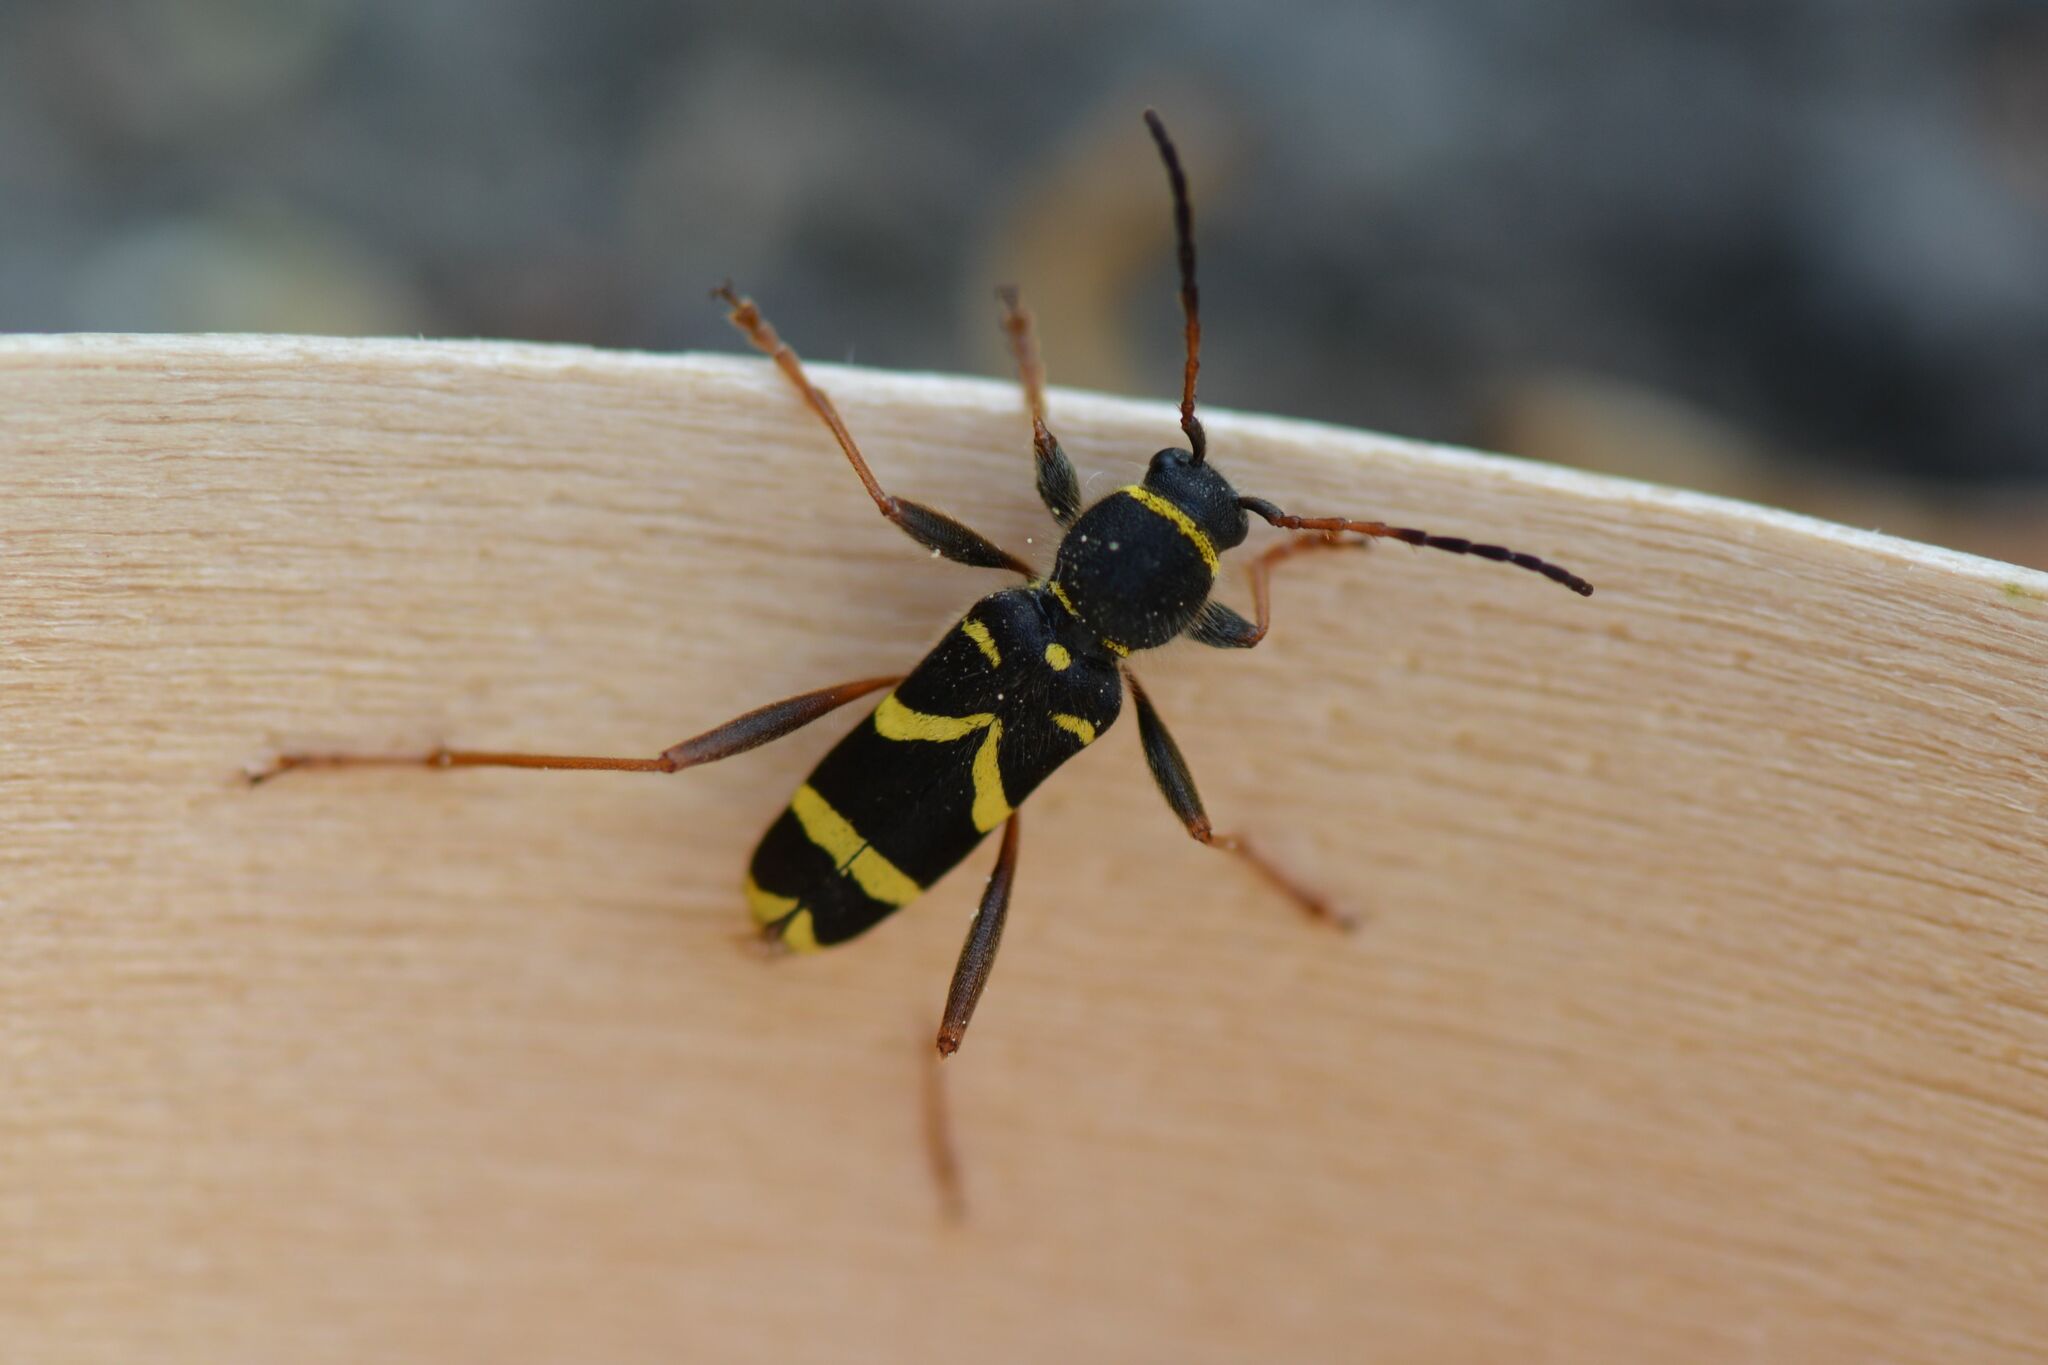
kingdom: Animalia
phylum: Arthropoda
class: Insecta
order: Coleoptera
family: Cerambycidae
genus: Clytus
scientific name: Clytus arietis
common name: Wasp beetle
